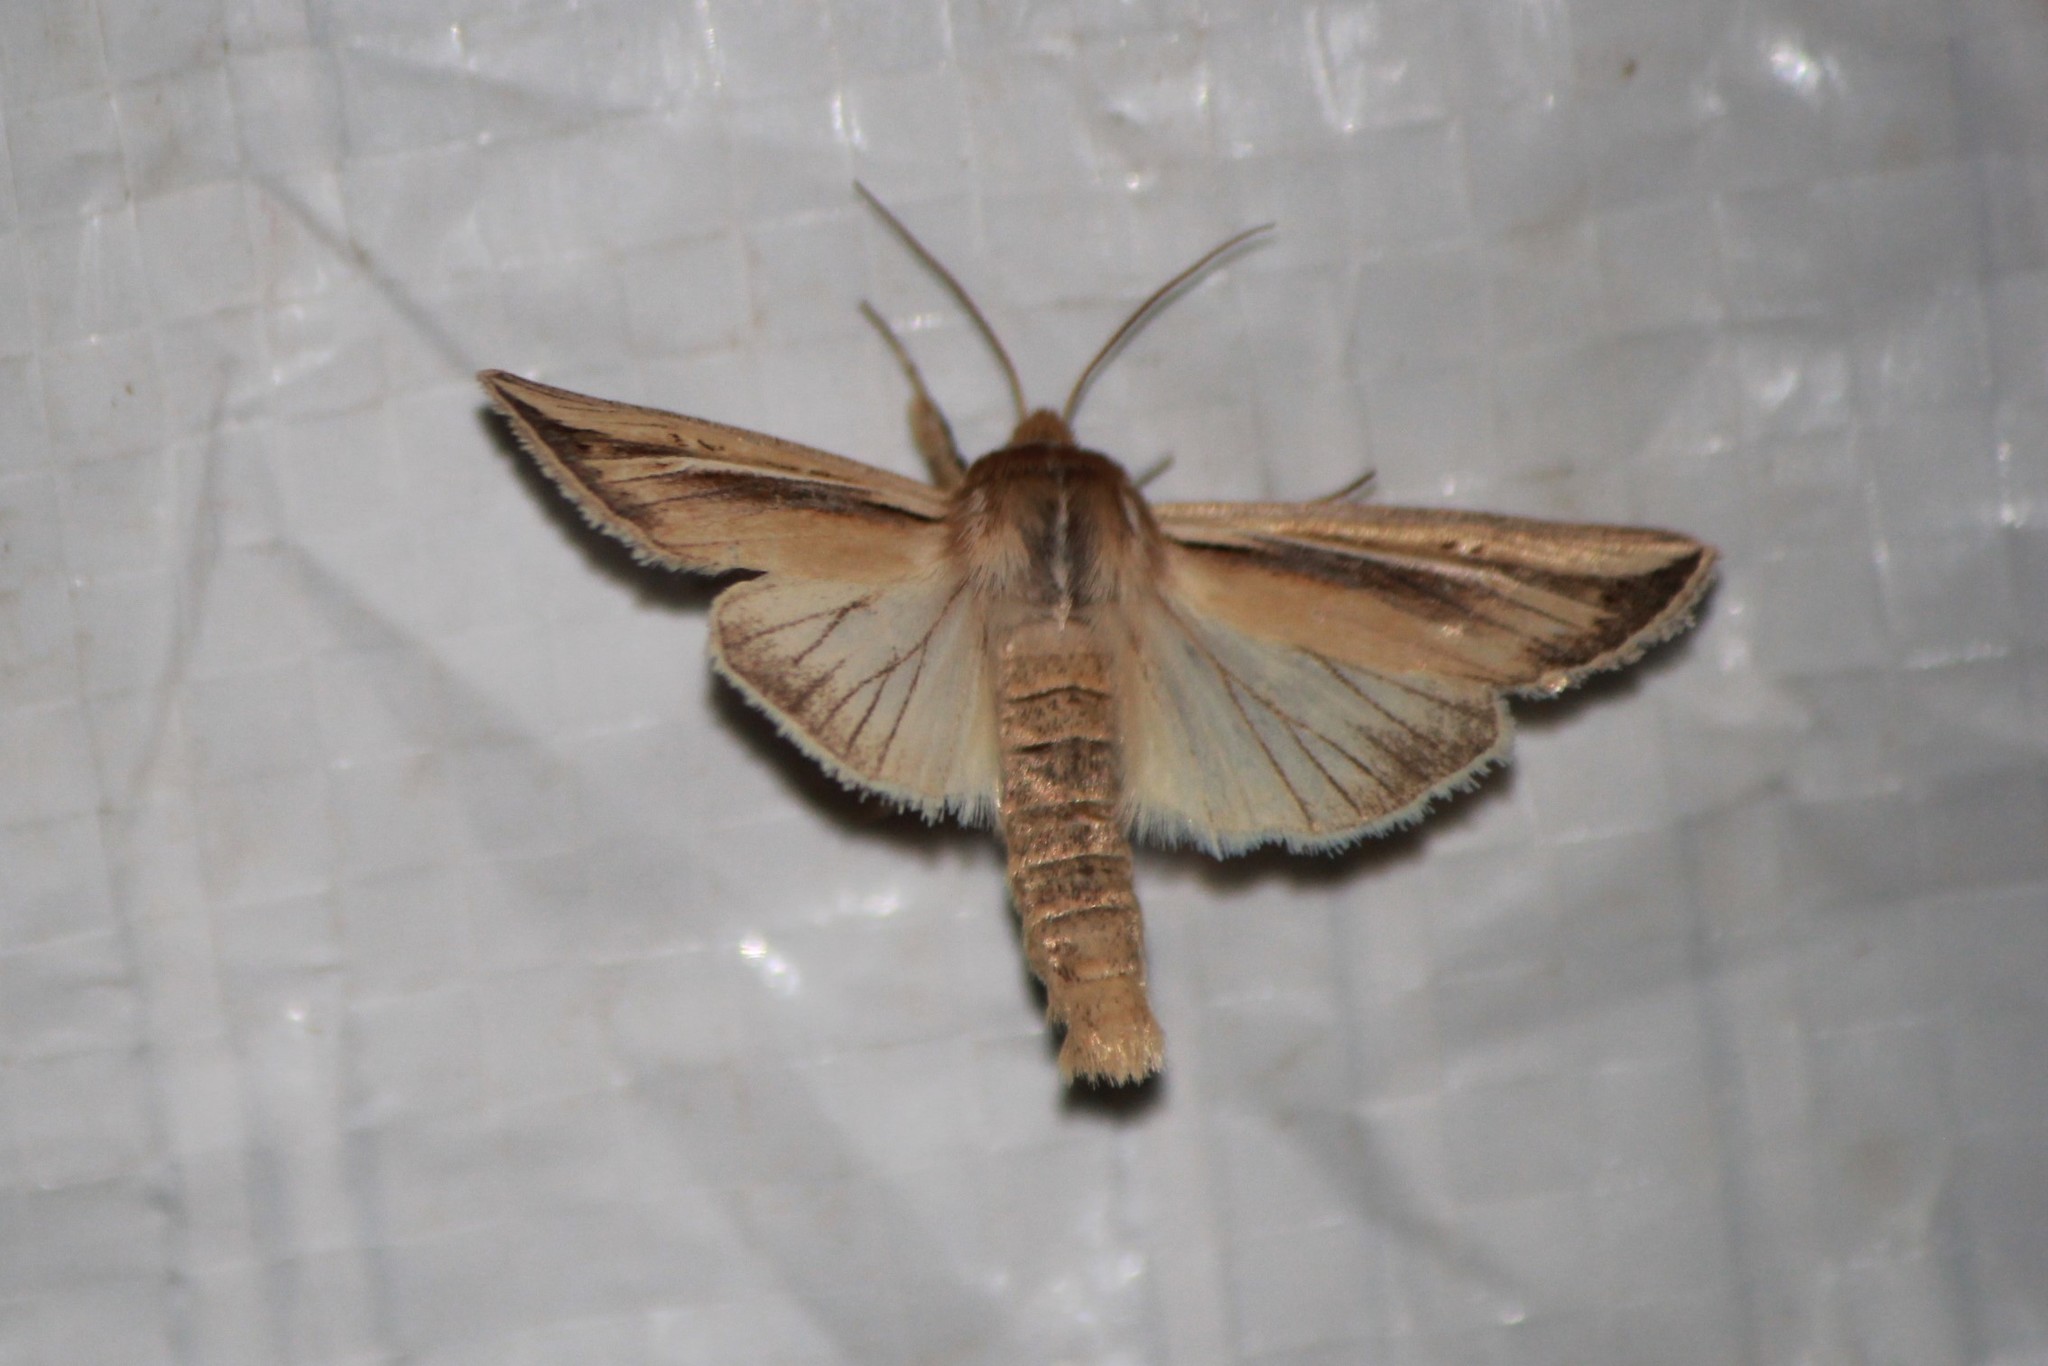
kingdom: Animalia
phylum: Arthropoda
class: Insecta
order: Lepidoptera
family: Noctuidae
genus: Dargida
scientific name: Dargida diffusa
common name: Wheat head armyworm
